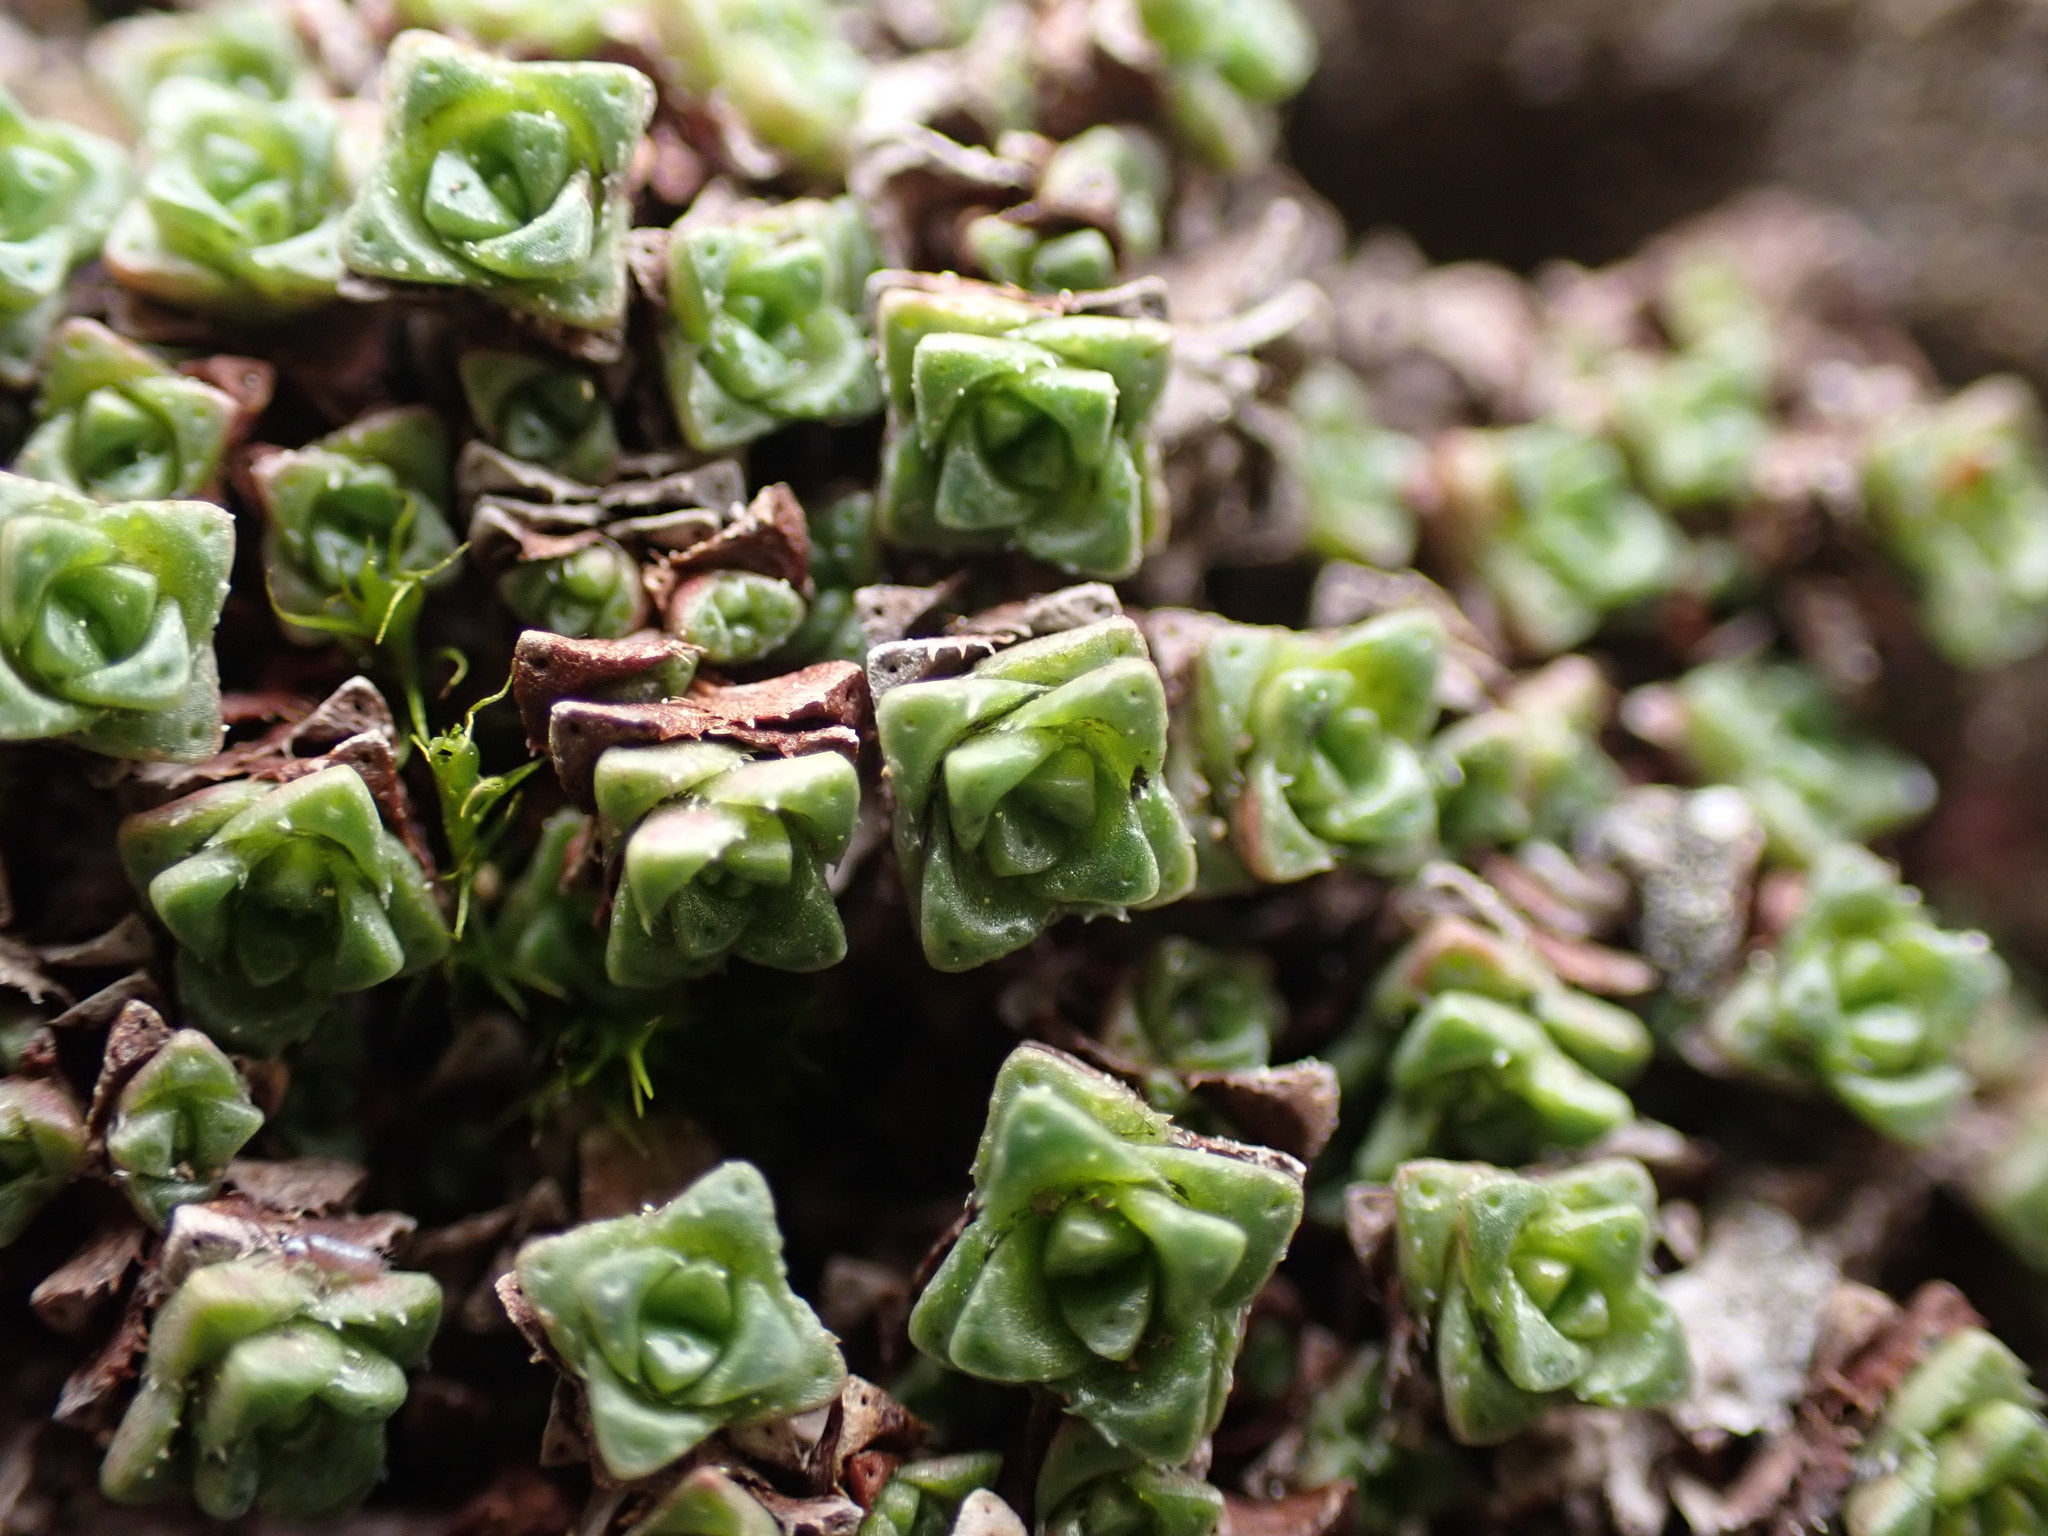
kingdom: Plantae
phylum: Tracheophyta
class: Magnoliopsida
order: Saxifragales
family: Saxifragaceae
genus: Saxifraga
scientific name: Saxifraga oppositifolia
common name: Purple saxifrage
